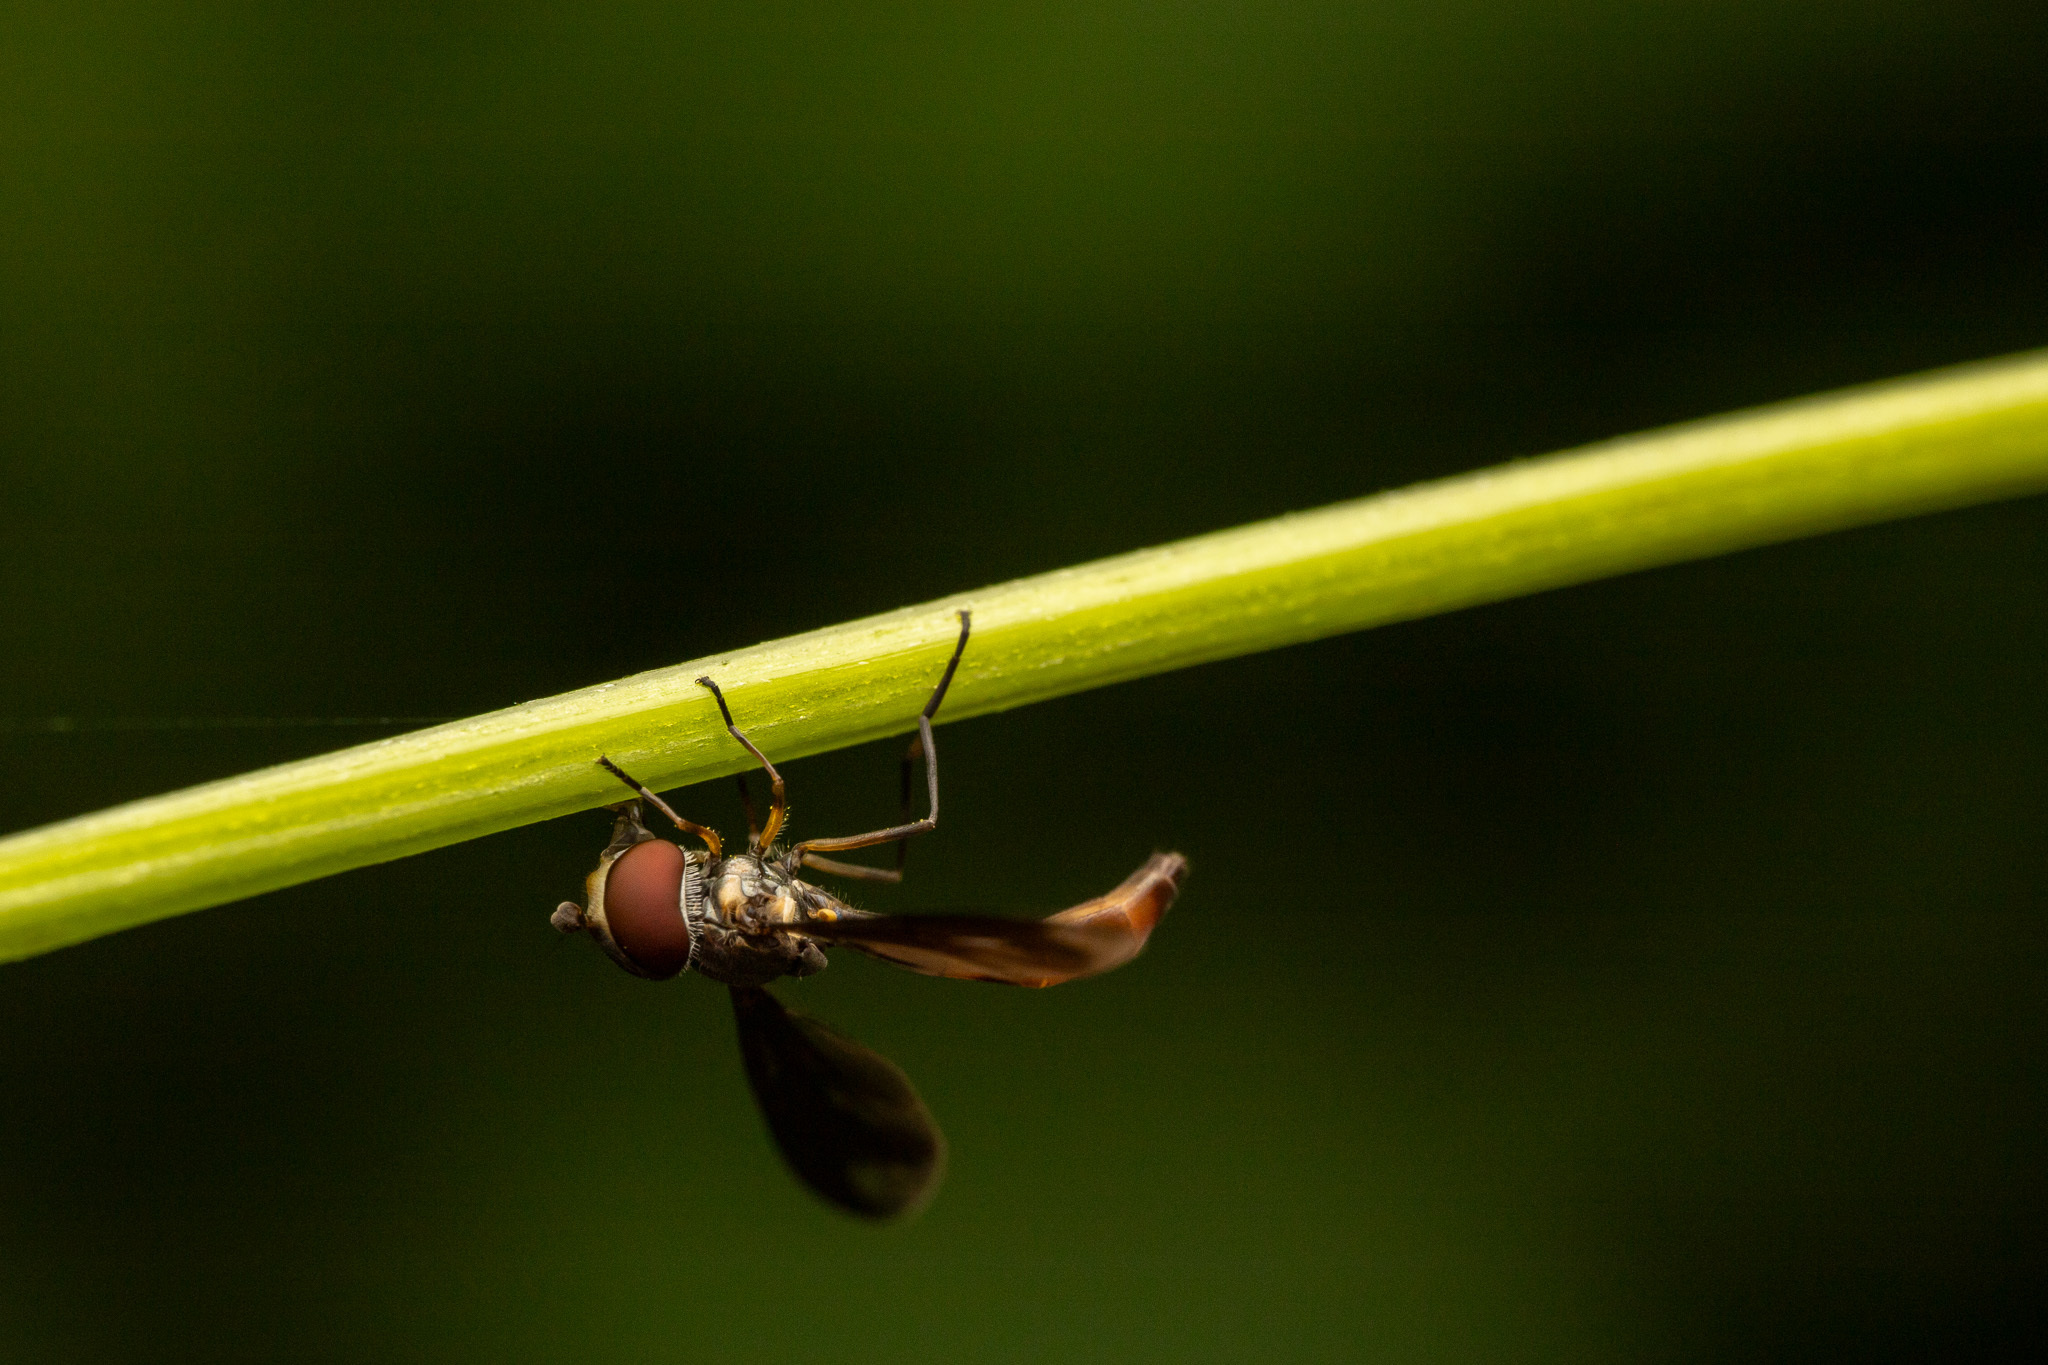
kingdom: Animalia
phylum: Arthropoda
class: Insecta
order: Diptera
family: Syrphidae
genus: Ocyptamus
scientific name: Ocyptamus fuscipennis
